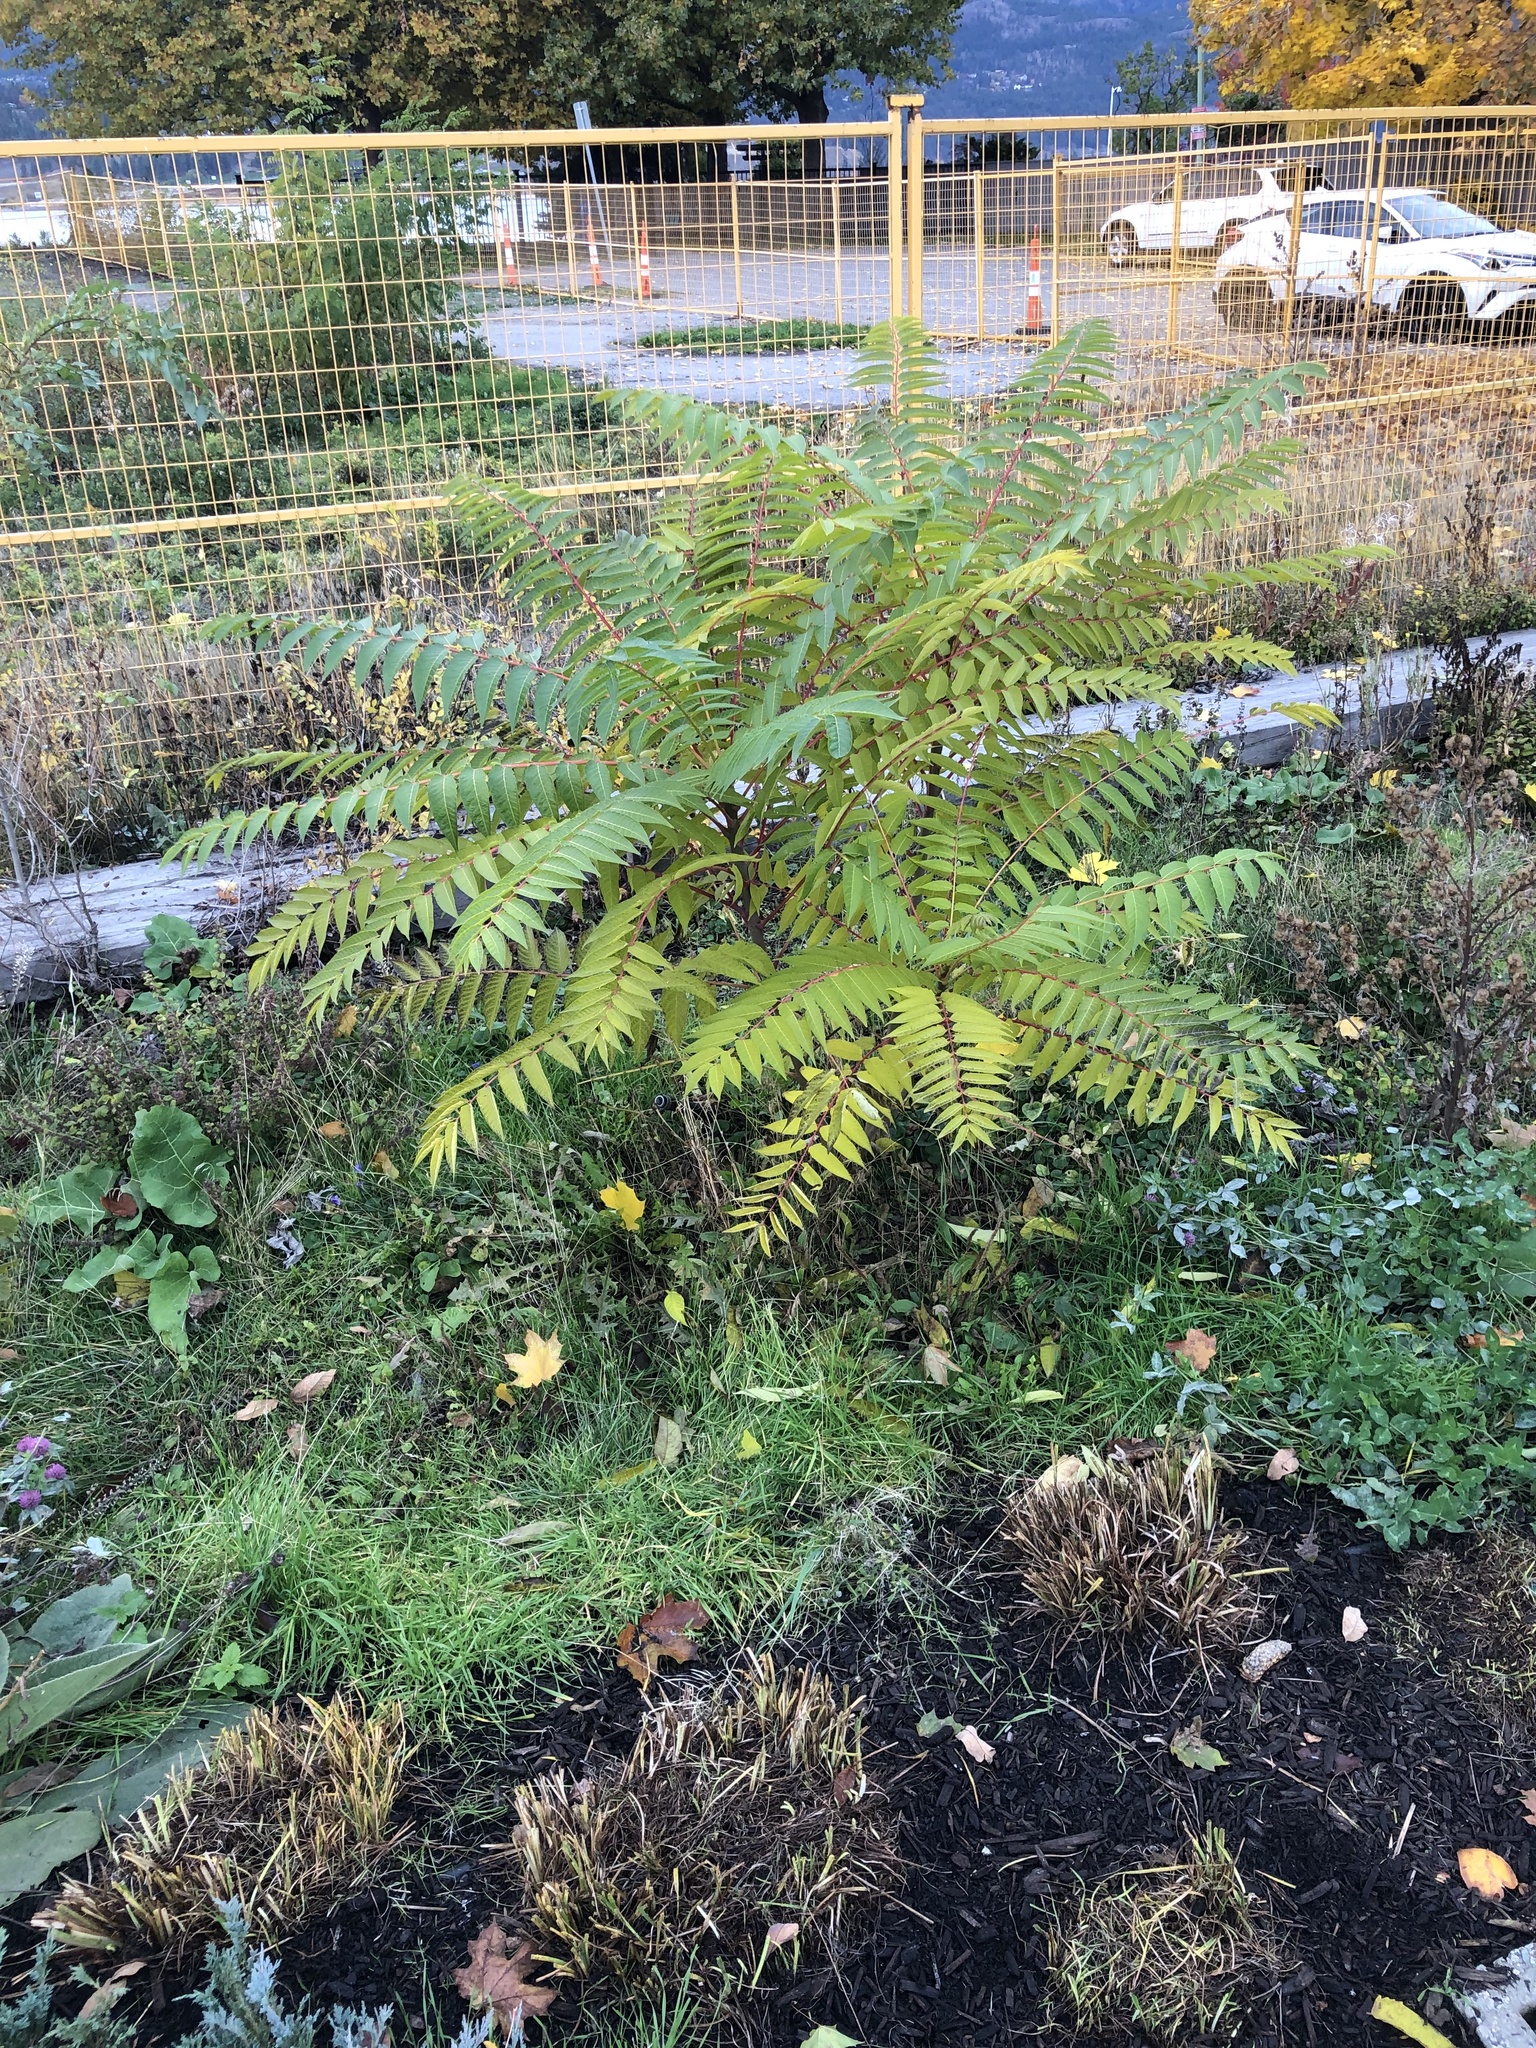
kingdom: Plantae
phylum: Tracheophyta
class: Magnoliopsida
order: Sapindales
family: Simaroubaceae
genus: Ailanthus
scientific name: Ailanthus altissima
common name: Tree-of-heaven
